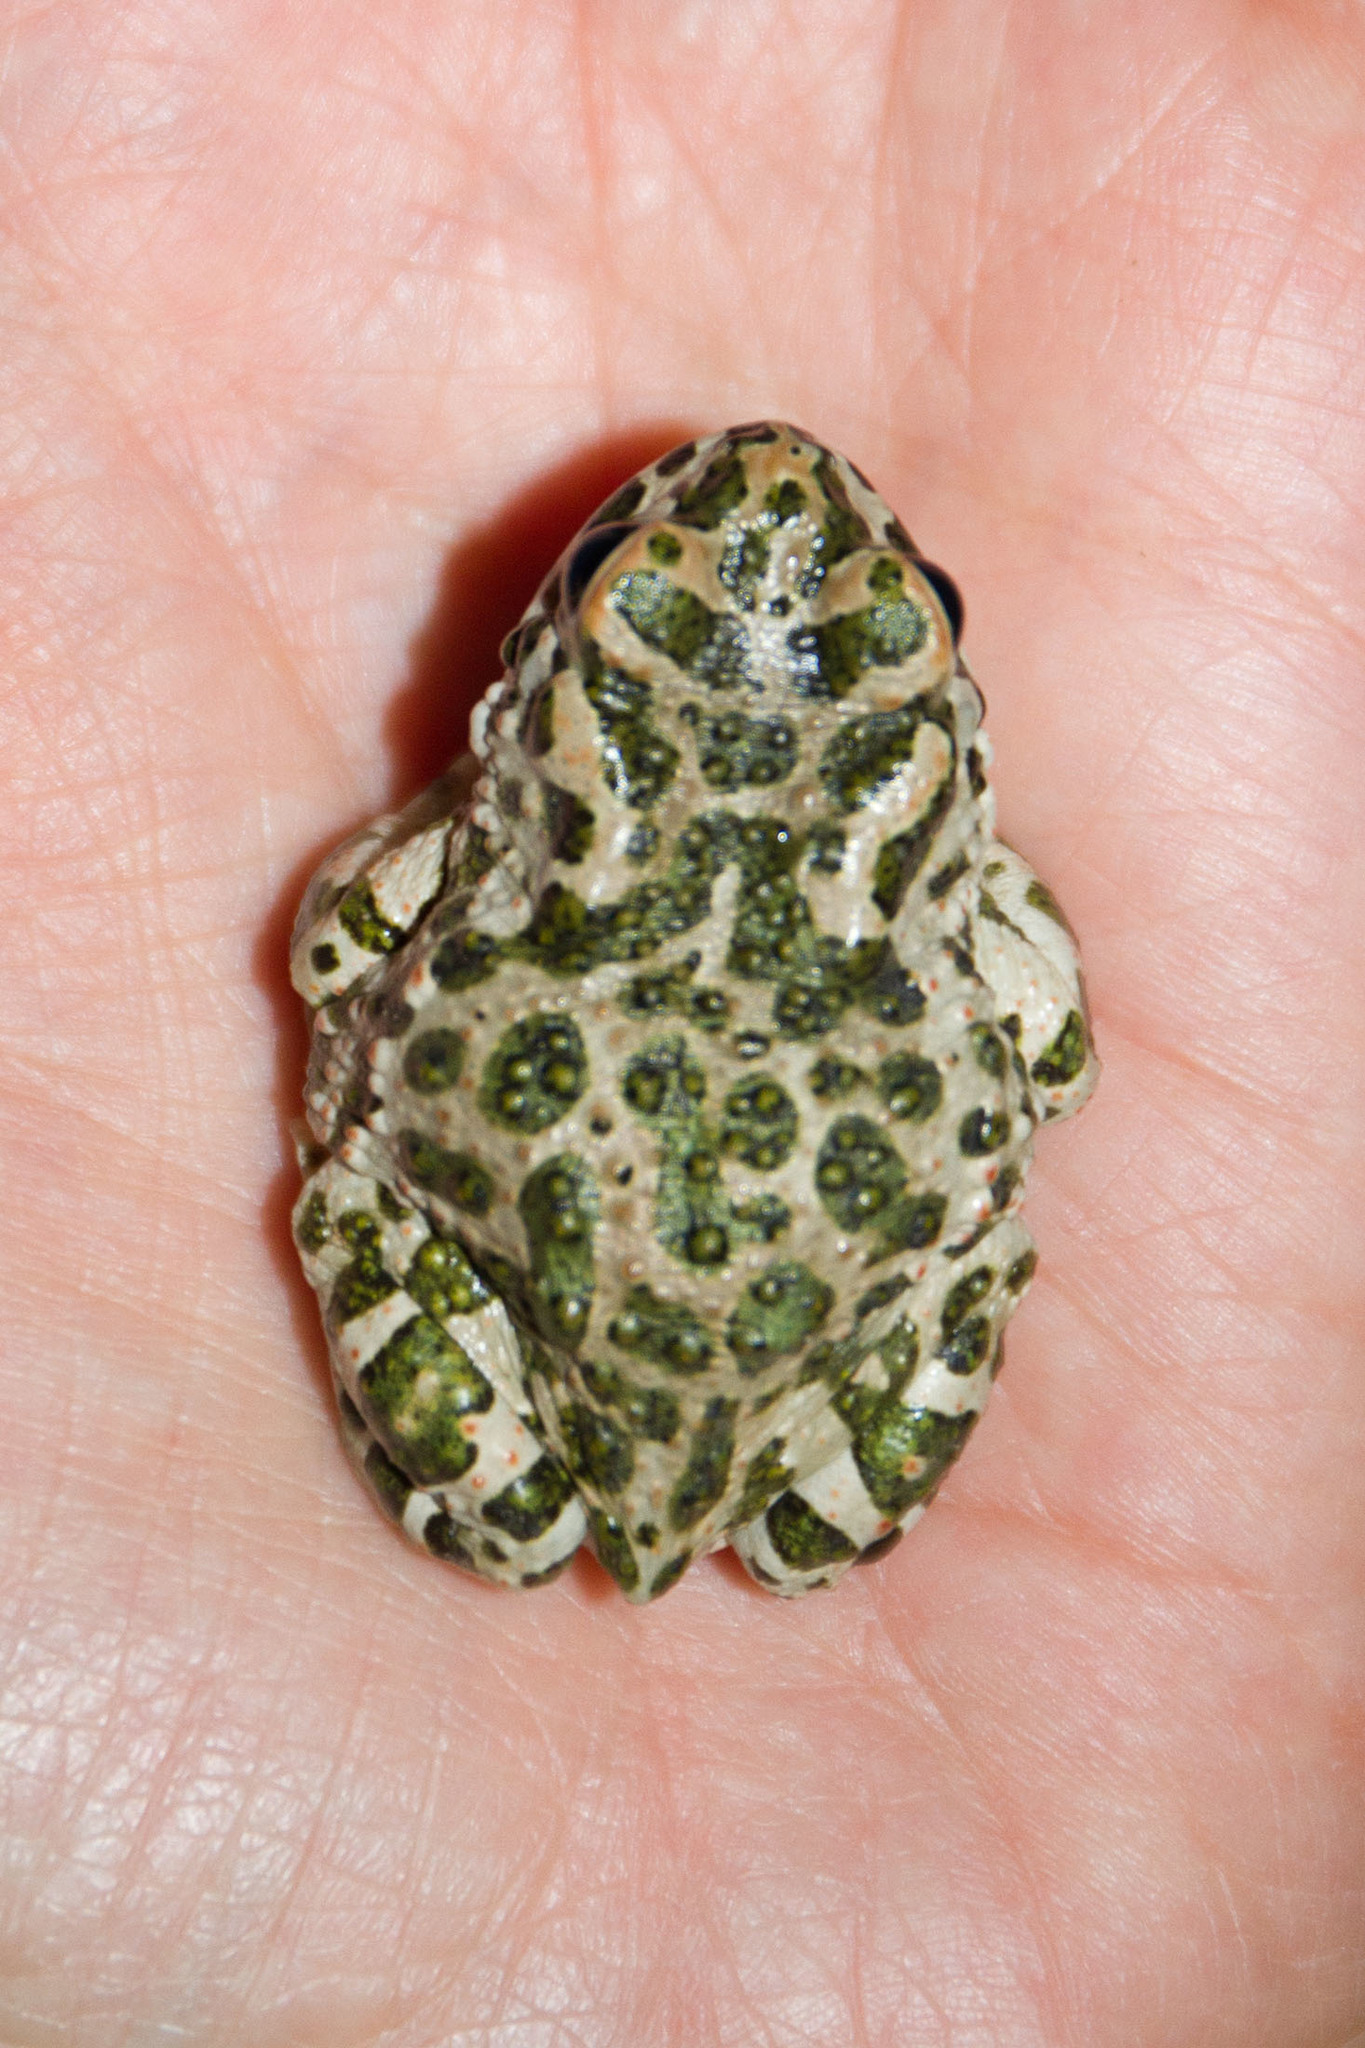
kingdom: Animalia
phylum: Chordata
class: Amphibia
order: Anura
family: Bufonidae
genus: Bufotes
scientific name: Bufotes viridis
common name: European green toad
